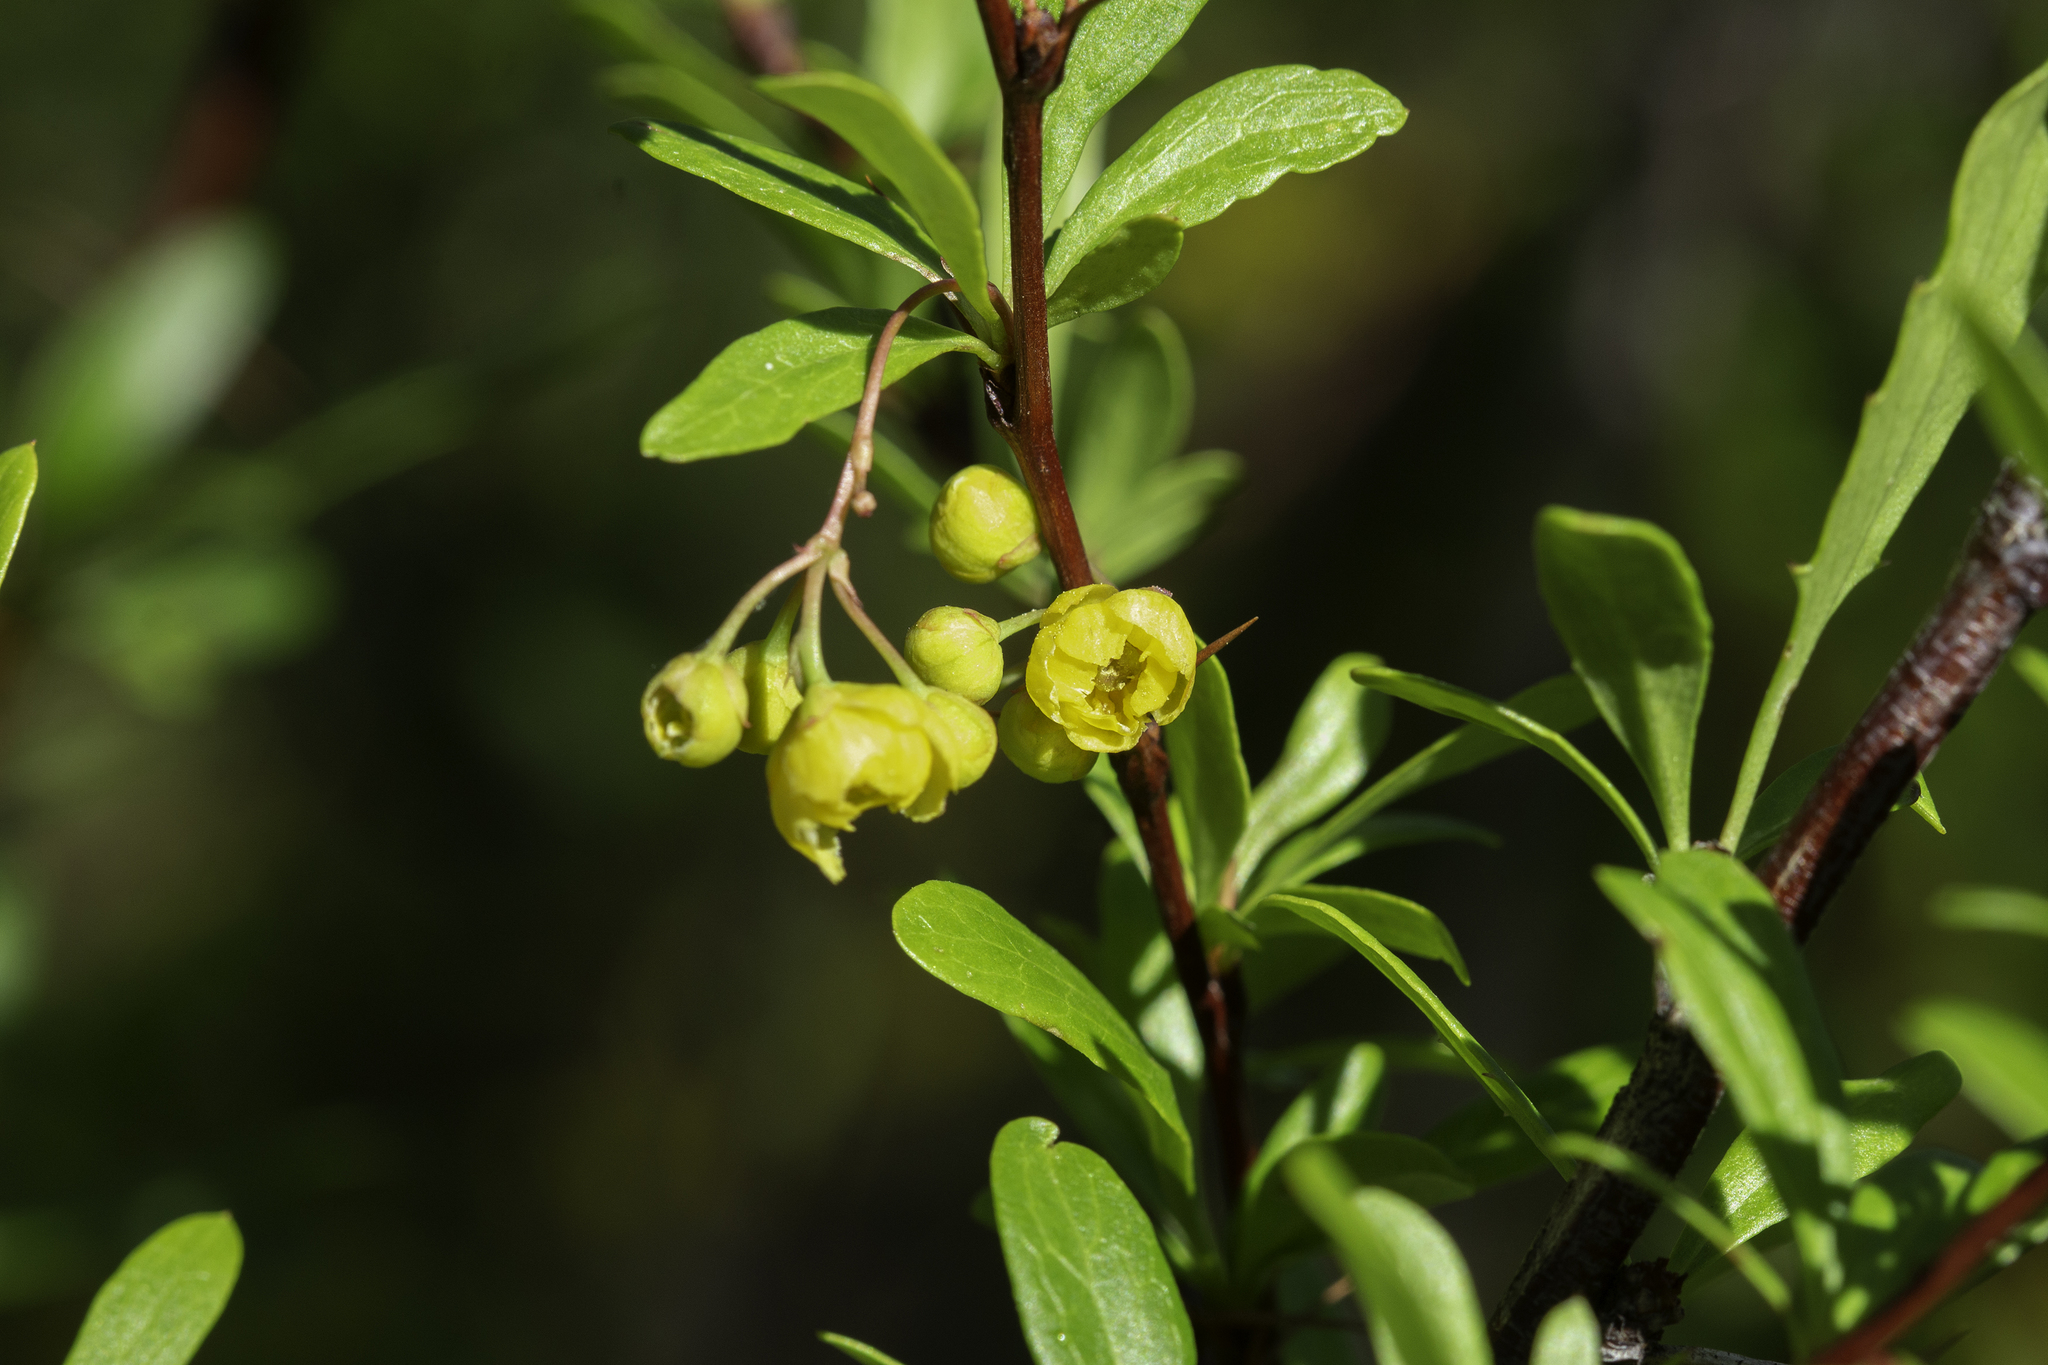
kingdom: Plantae
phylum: Tracheophyta
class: Magnoliopsida
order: Ranunculales
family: Berberidaceae
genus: Berberis
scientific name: Berberis fendleri
